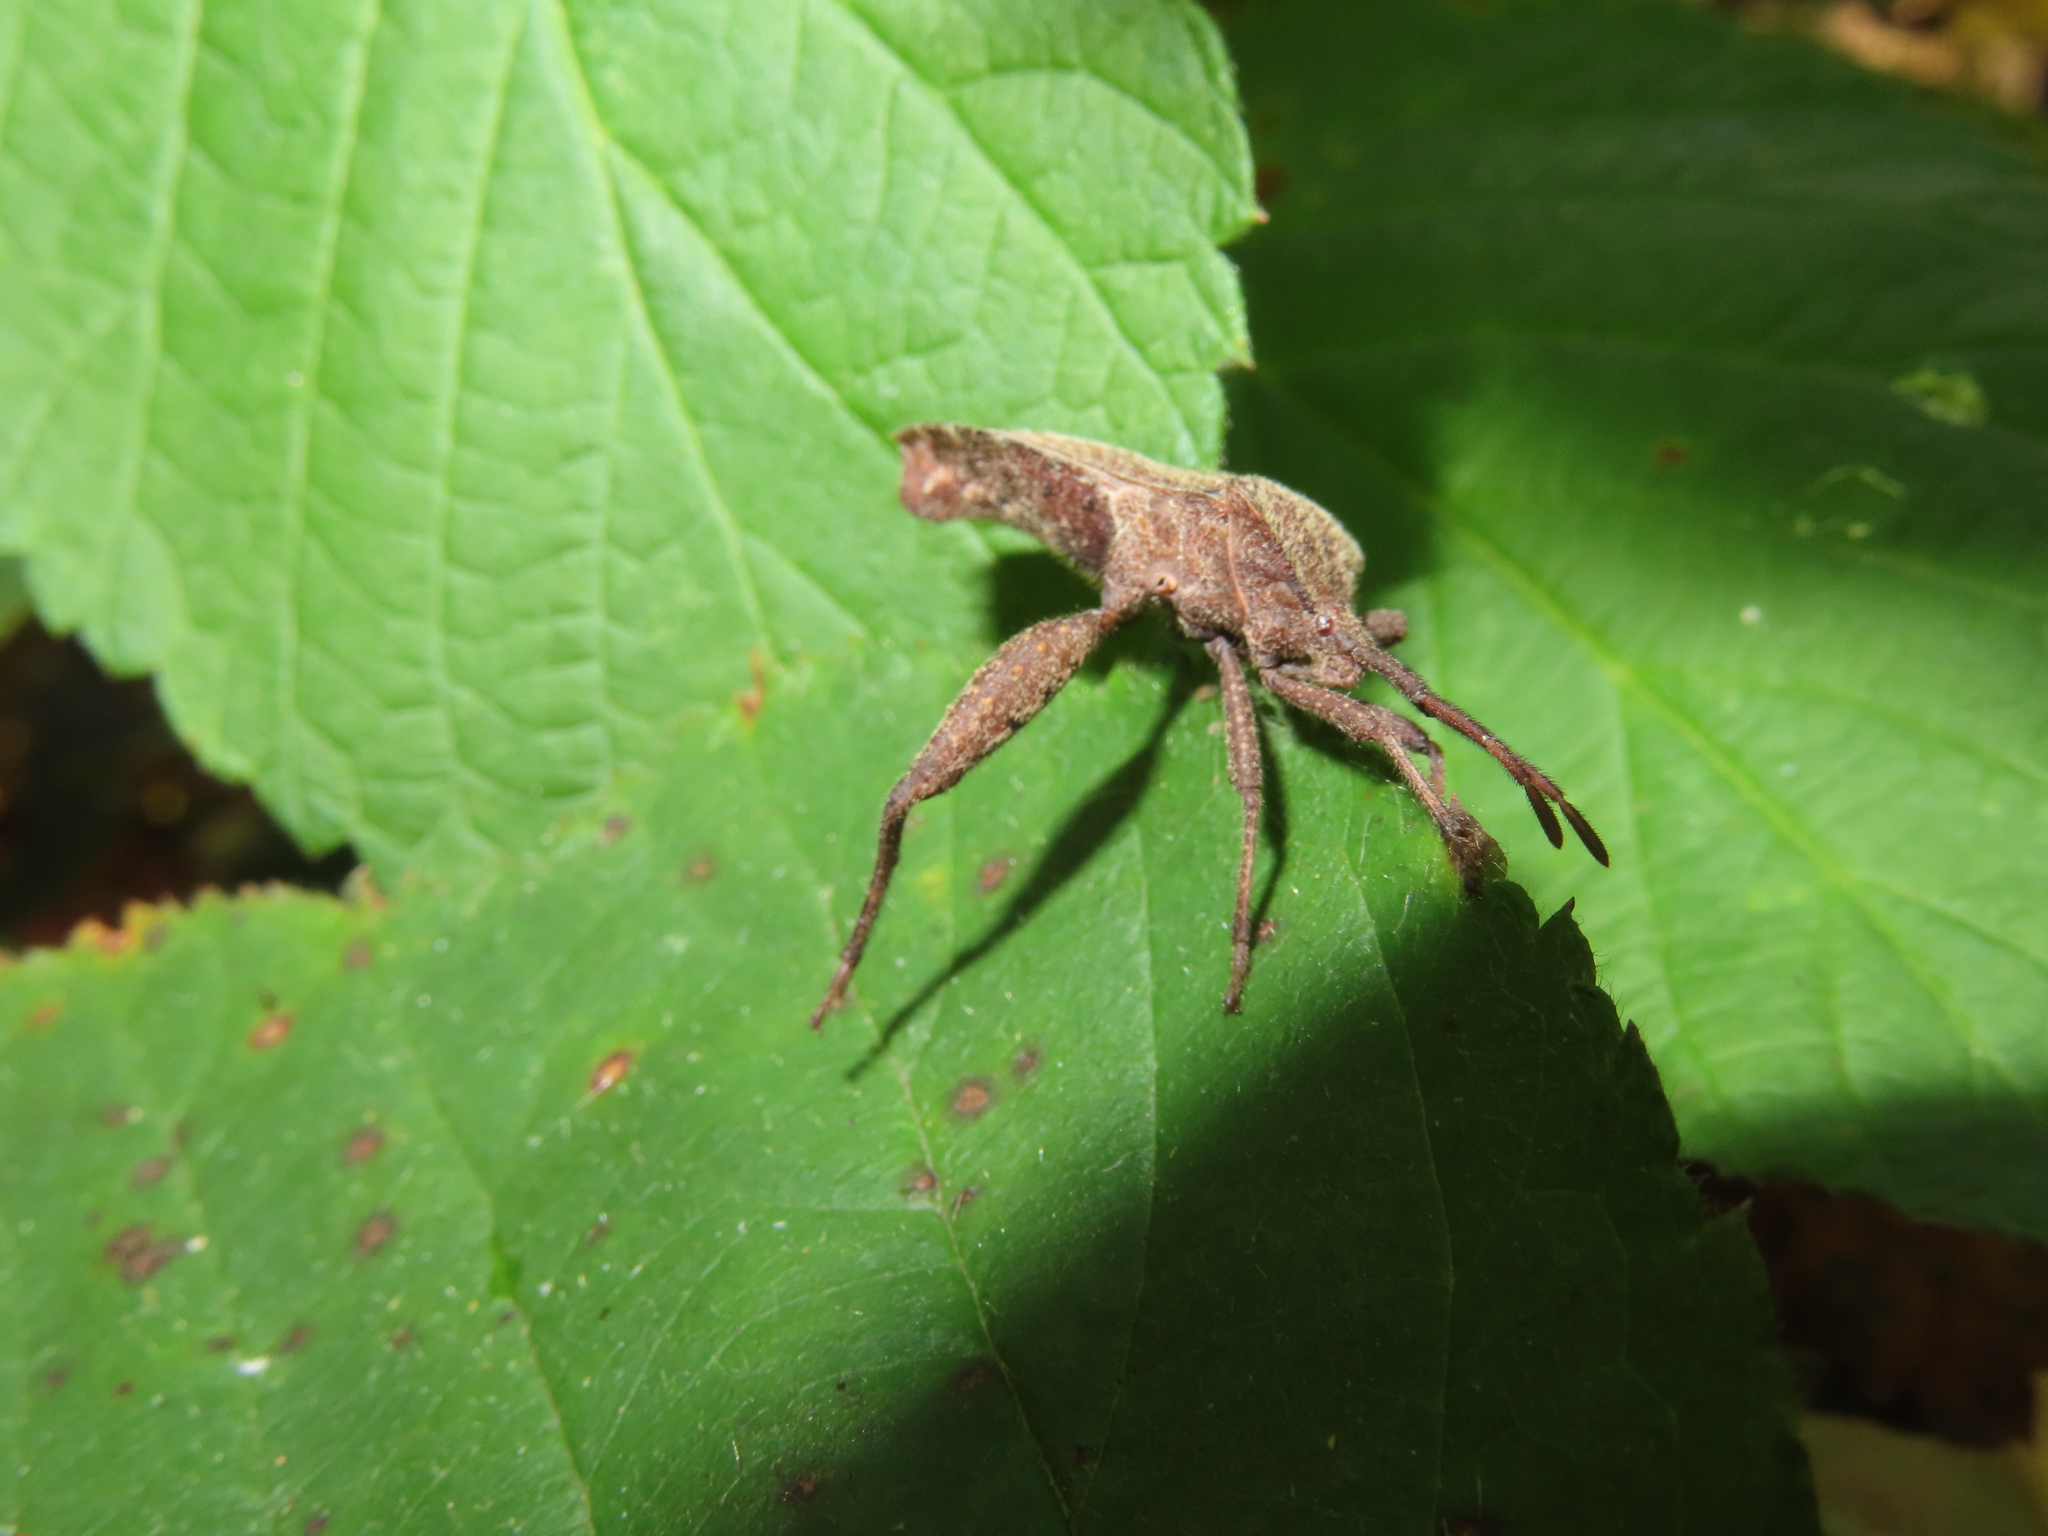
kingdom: Animalia
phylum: Arthropoda
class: Insecta
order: Hemiptera
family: Coreidae
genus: Piezogaster
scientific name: Piezogaster calcarator
